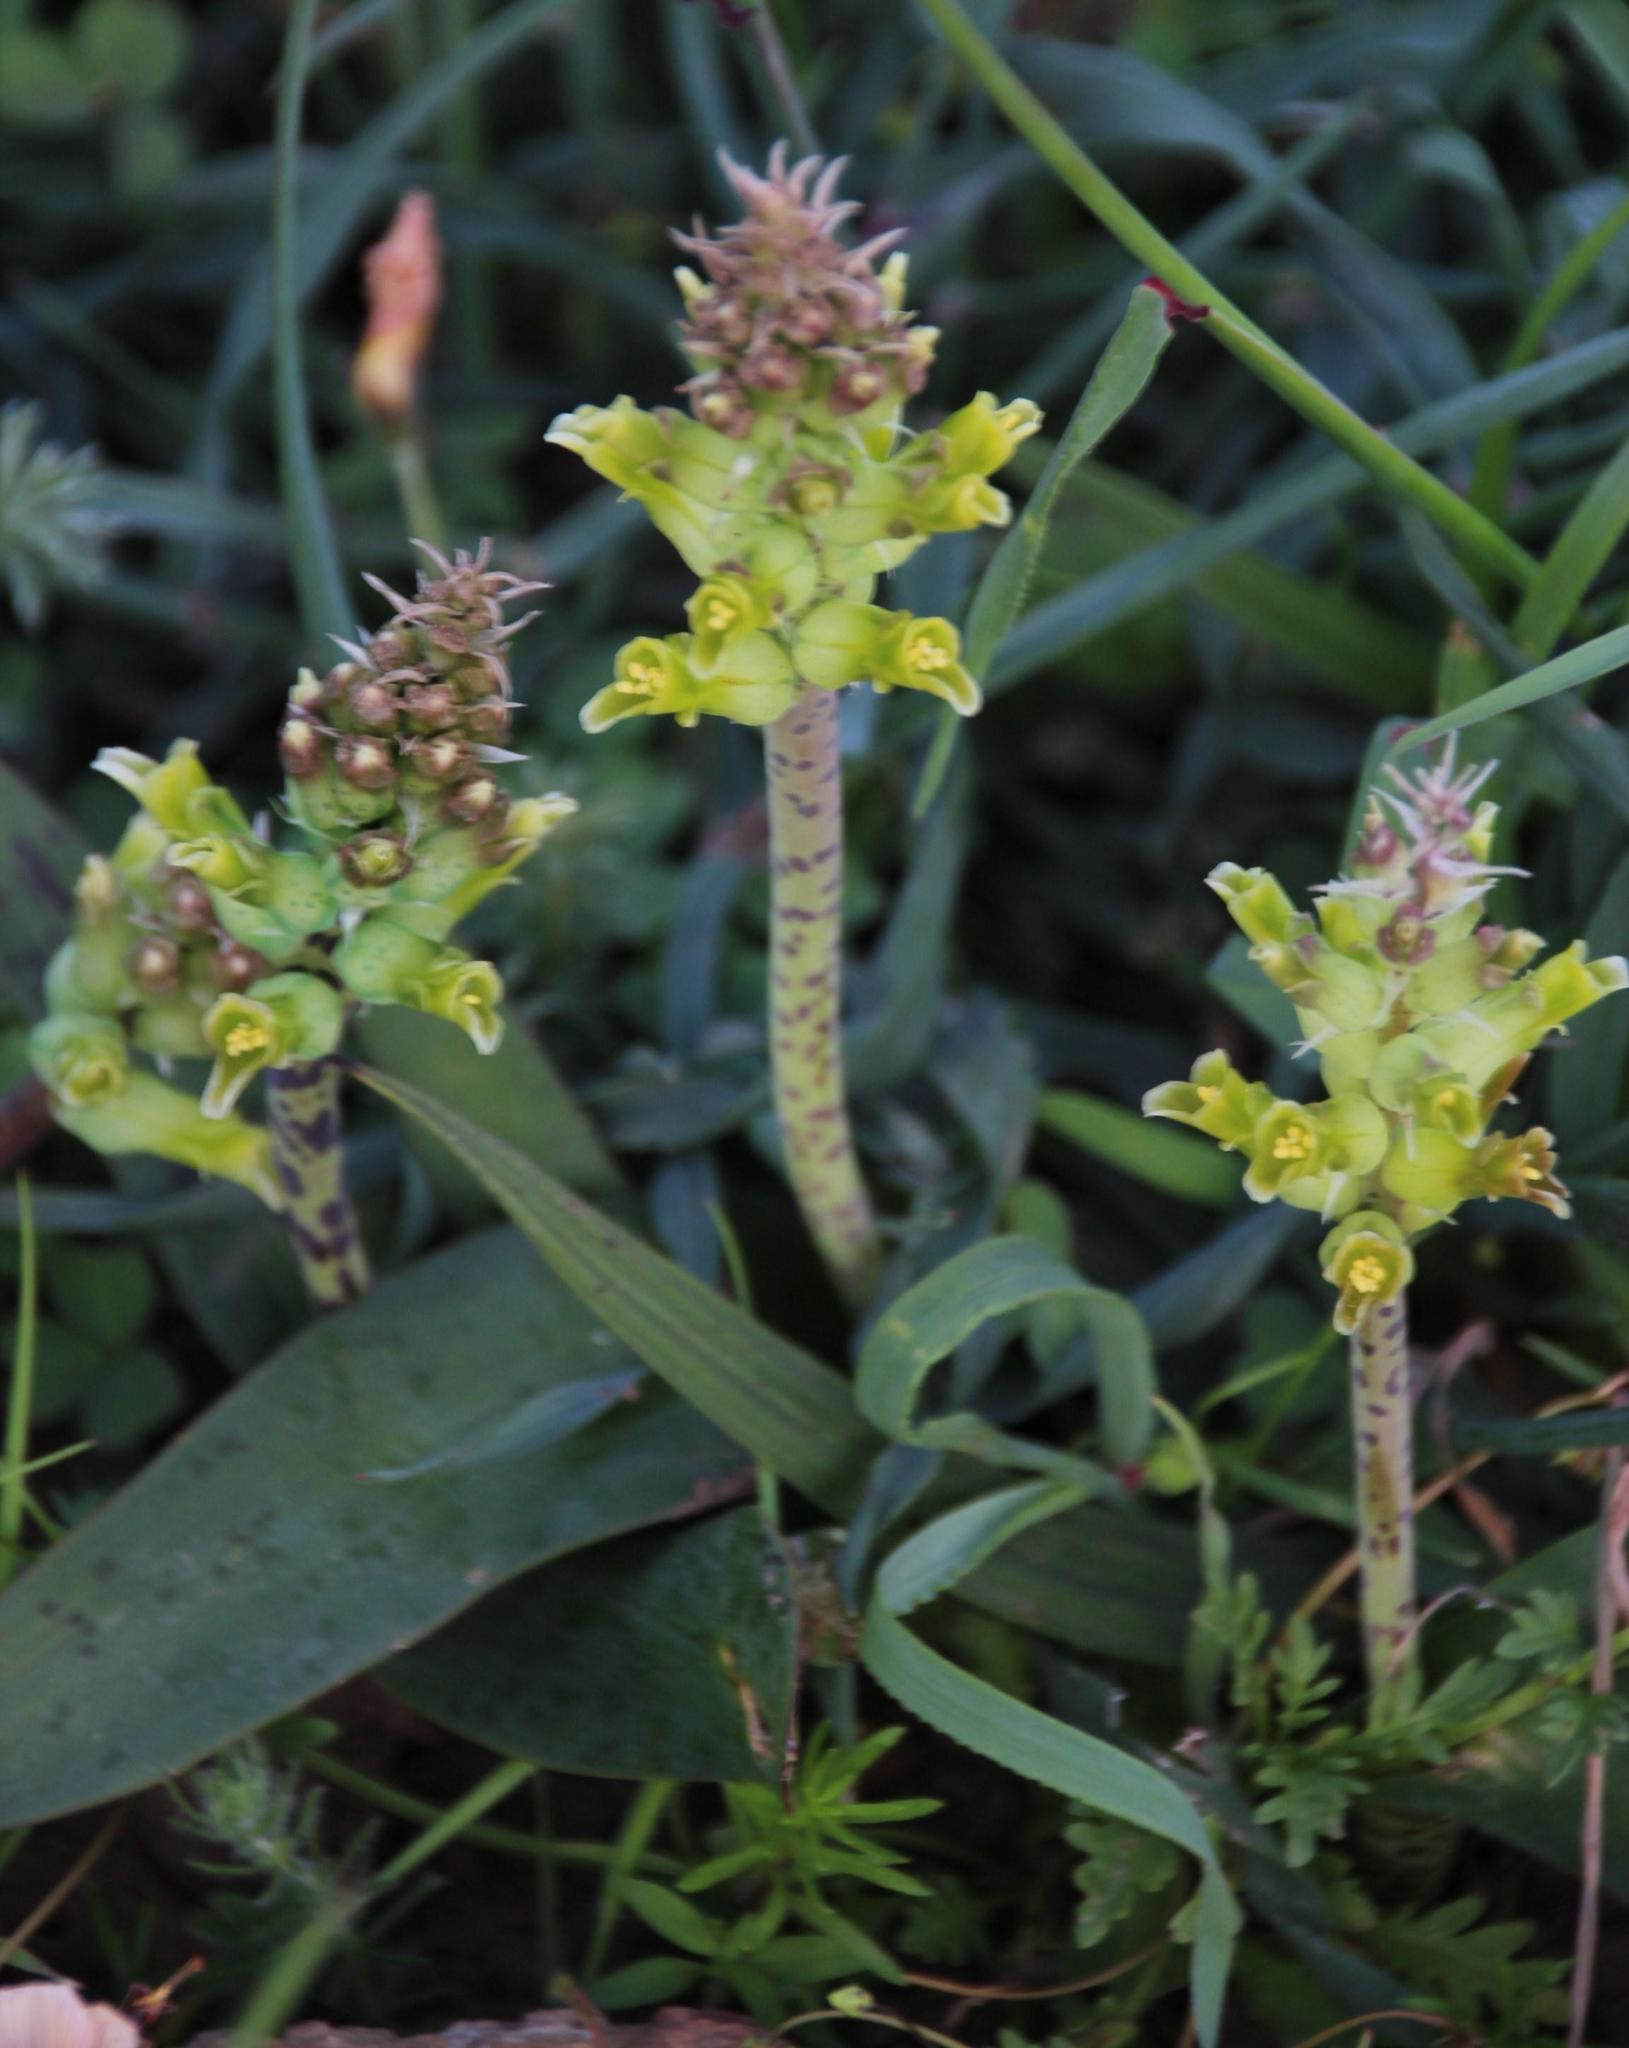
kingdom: Plantae
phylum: Tracheophyta
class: Liliopsida
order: Asparagales
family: Asparagaceae
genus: Lachenalia
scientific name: Lachenalia orchioides
